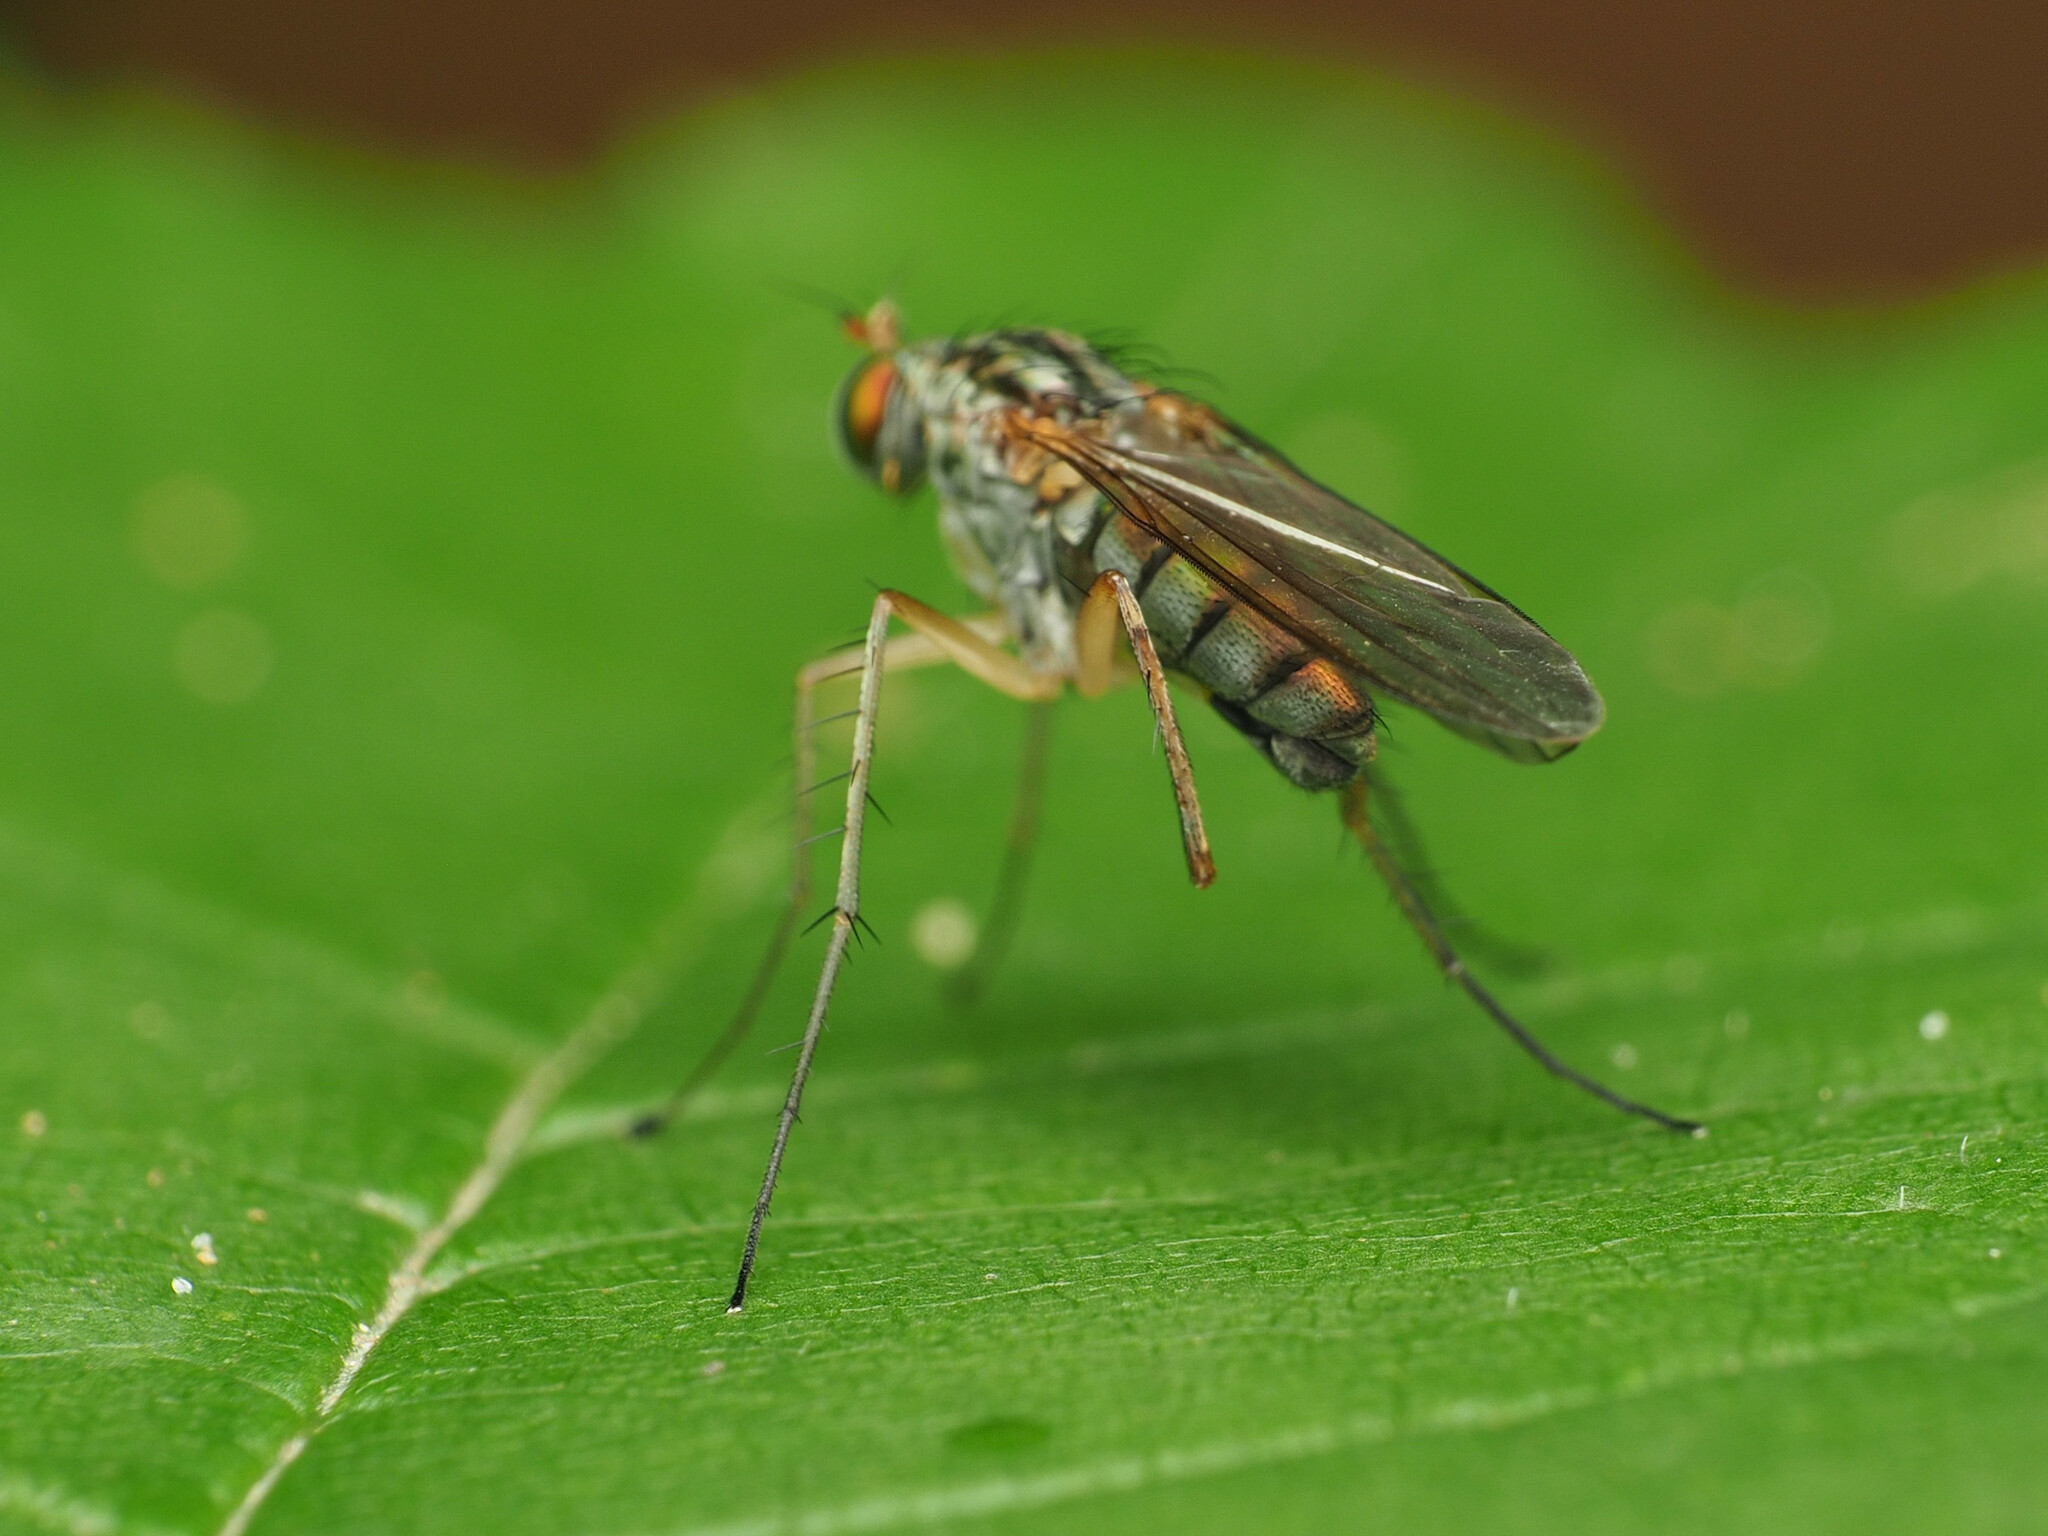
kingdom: Animalia
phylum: Arthropoda
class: Insecta
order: Diptera
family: Dolichopodidae
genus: Dolichopus
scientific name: Dolichopus longipennis
